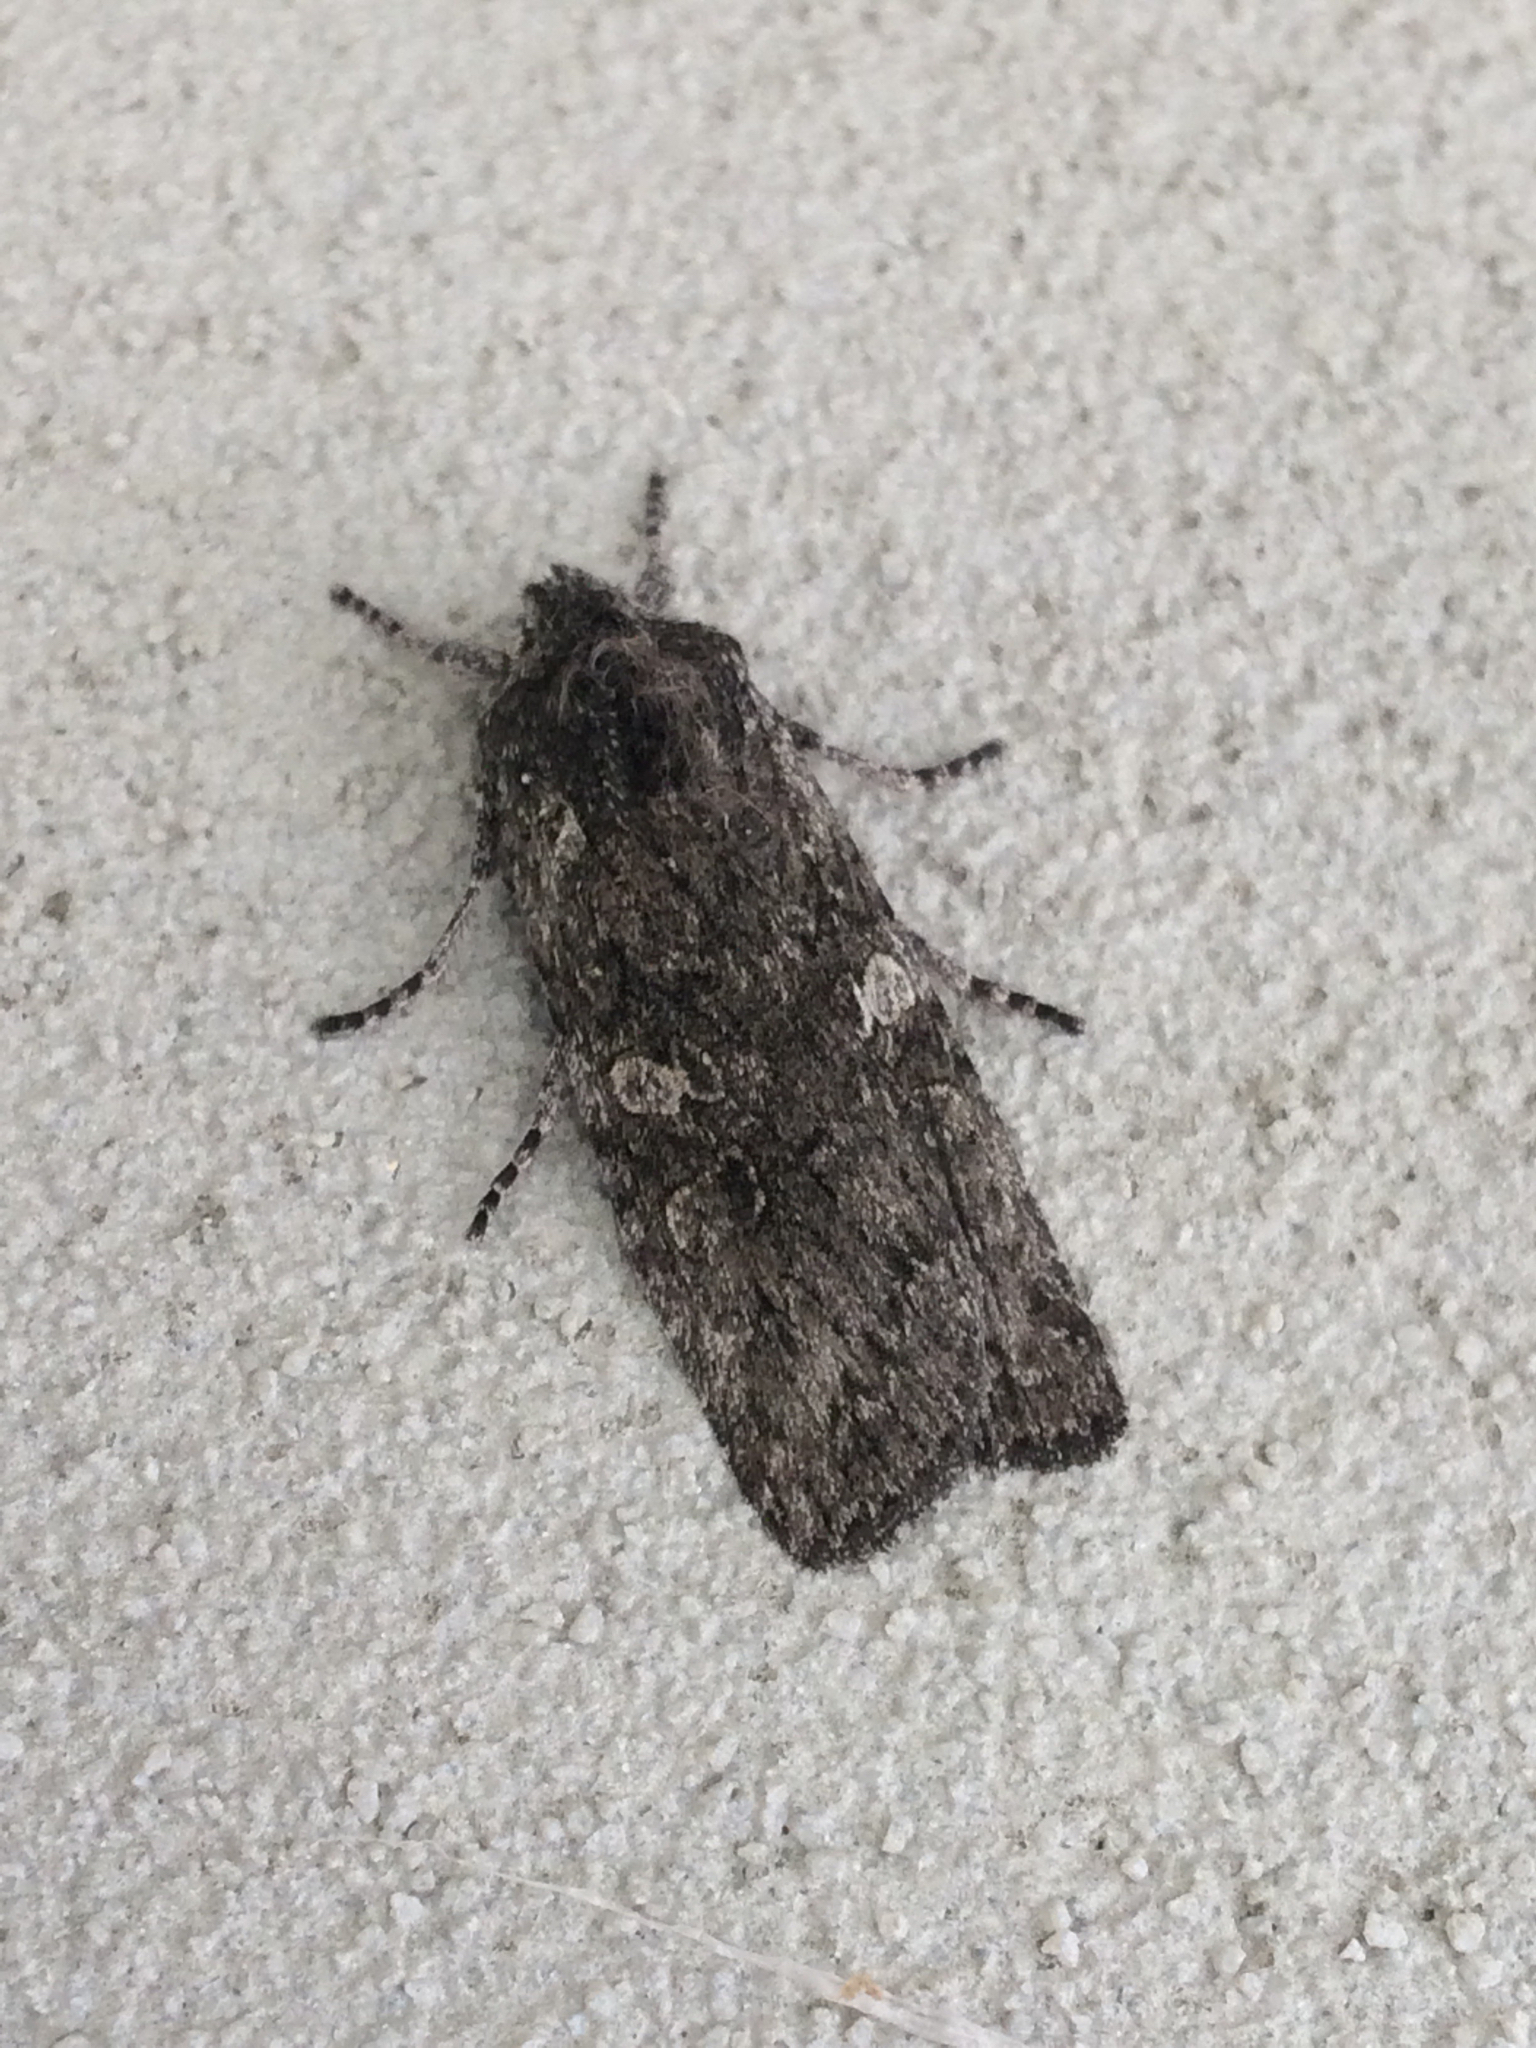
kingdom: Animalia
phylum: Arthropoda
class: Insecta
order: Lepidoptera
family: Noctuidae
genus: Lithophane
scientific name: Lithophane grotei
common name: Grote's pinion moth
